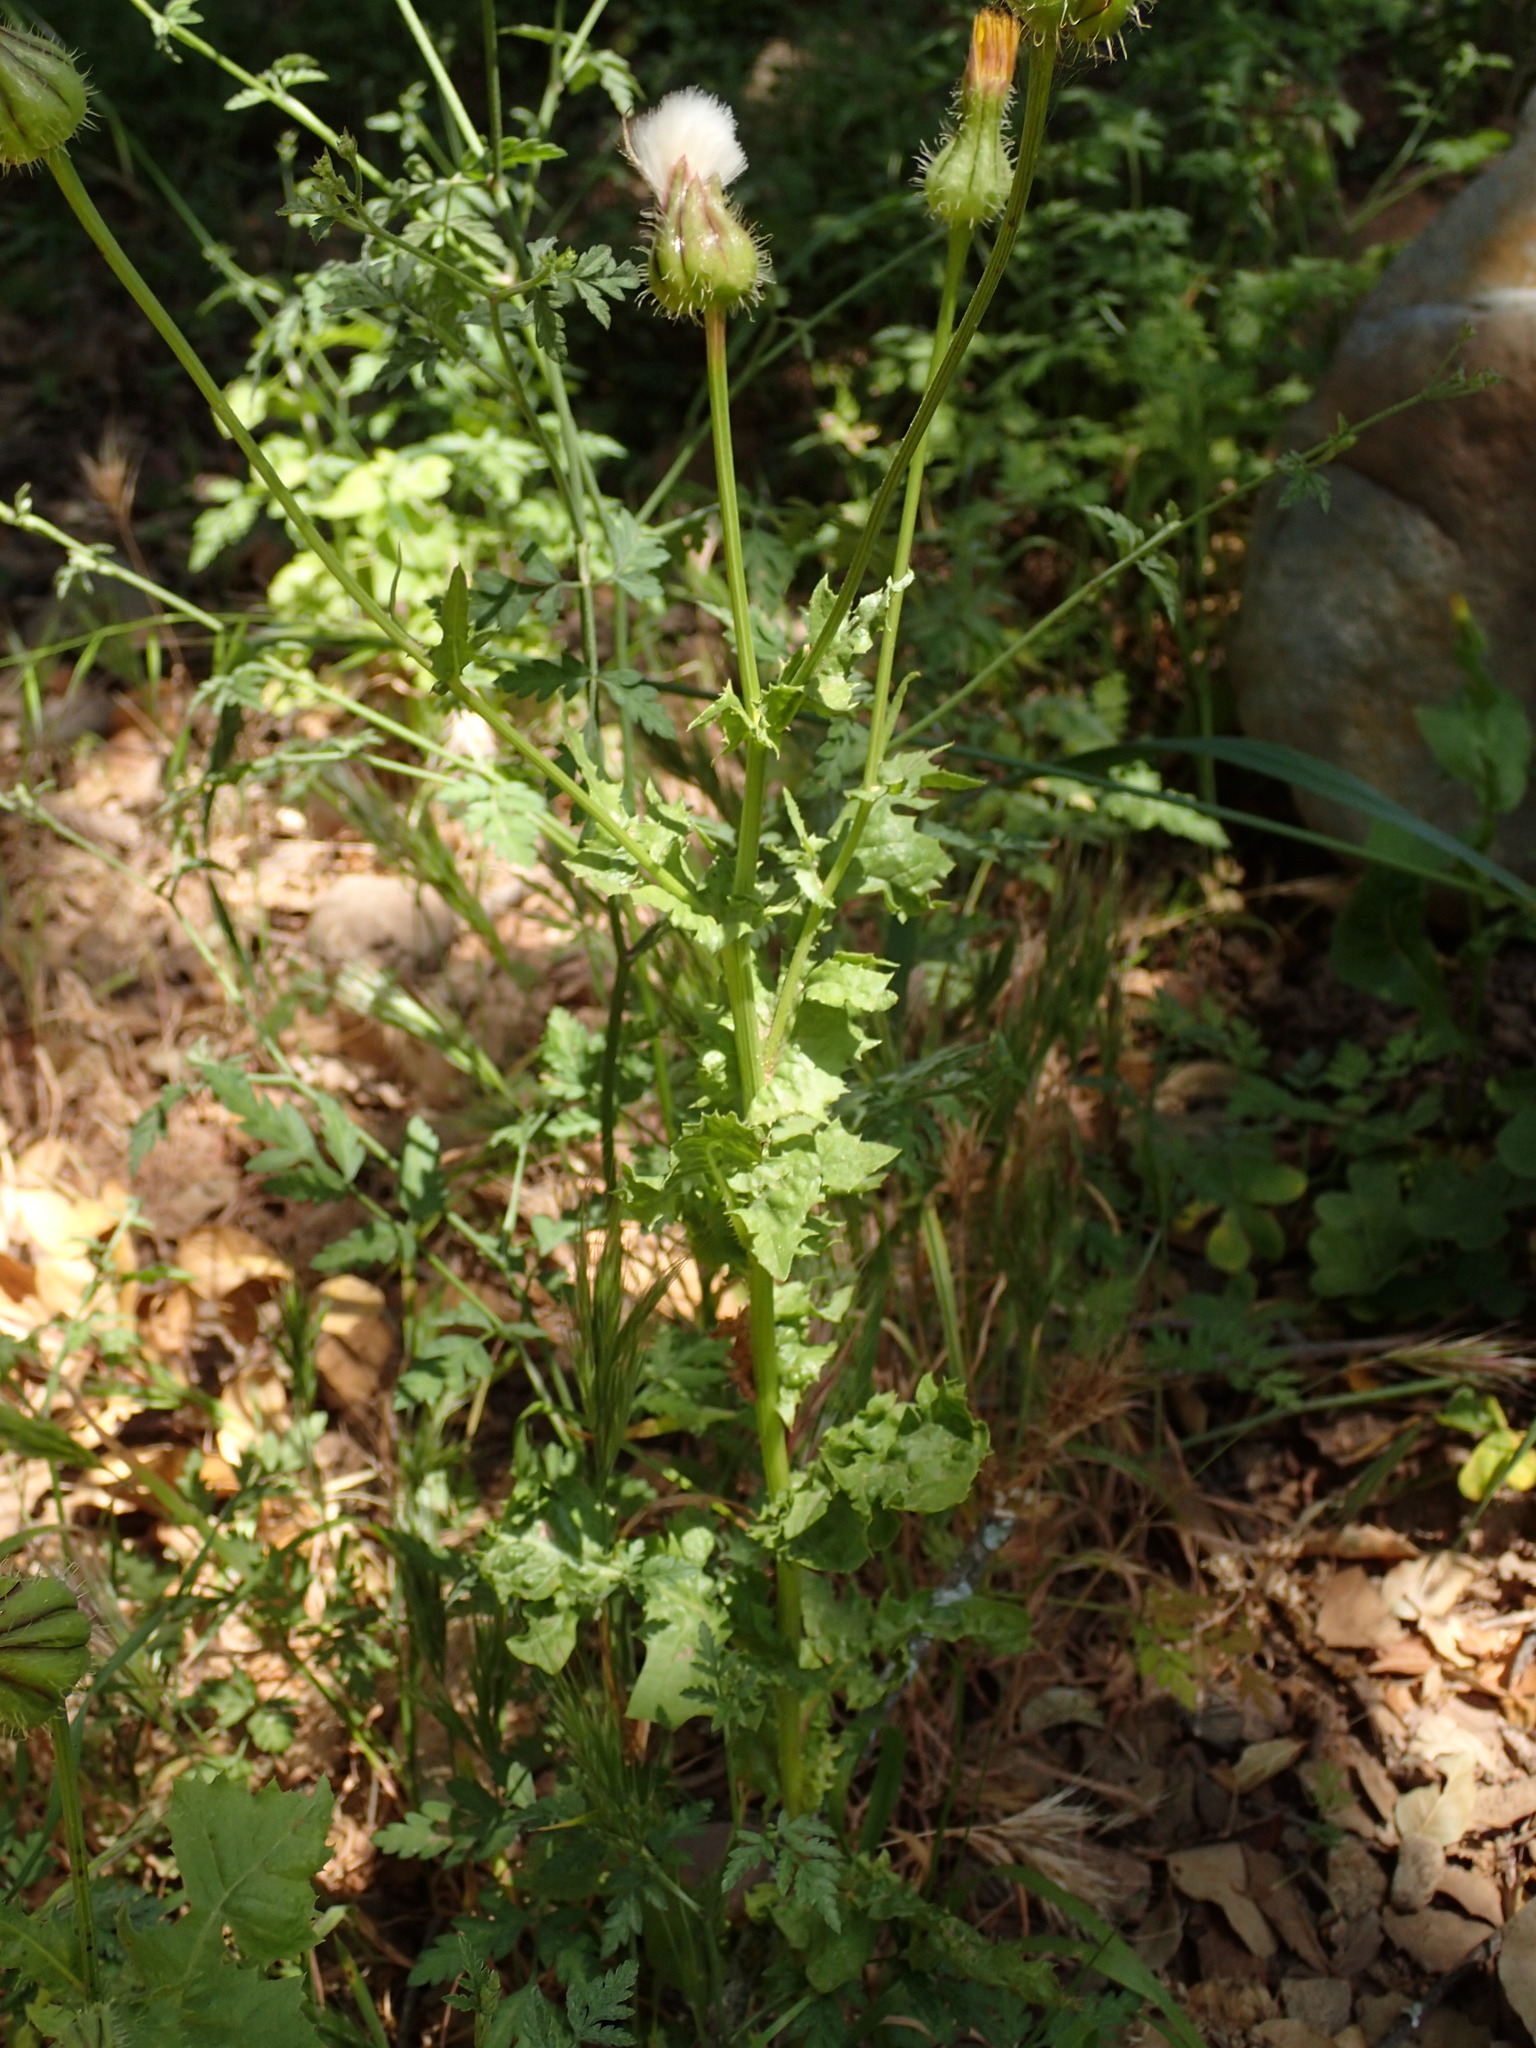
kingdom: Plantae
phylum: Tracheophyta
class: Magnoliopsida
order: Asterales
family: Asteraceae
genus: Urospermum
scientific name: Urospermum picroides
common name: False hawkbit
